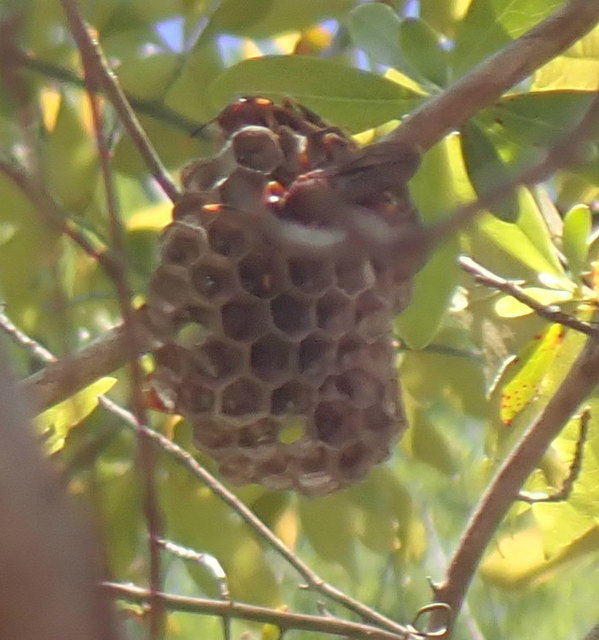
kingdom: Animalia
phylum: Arthropoda
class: Insecta
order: Hymenoptera
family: Eumenidae
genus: Polistes
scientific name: Polistes annularis
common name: Ringed paper wasp
